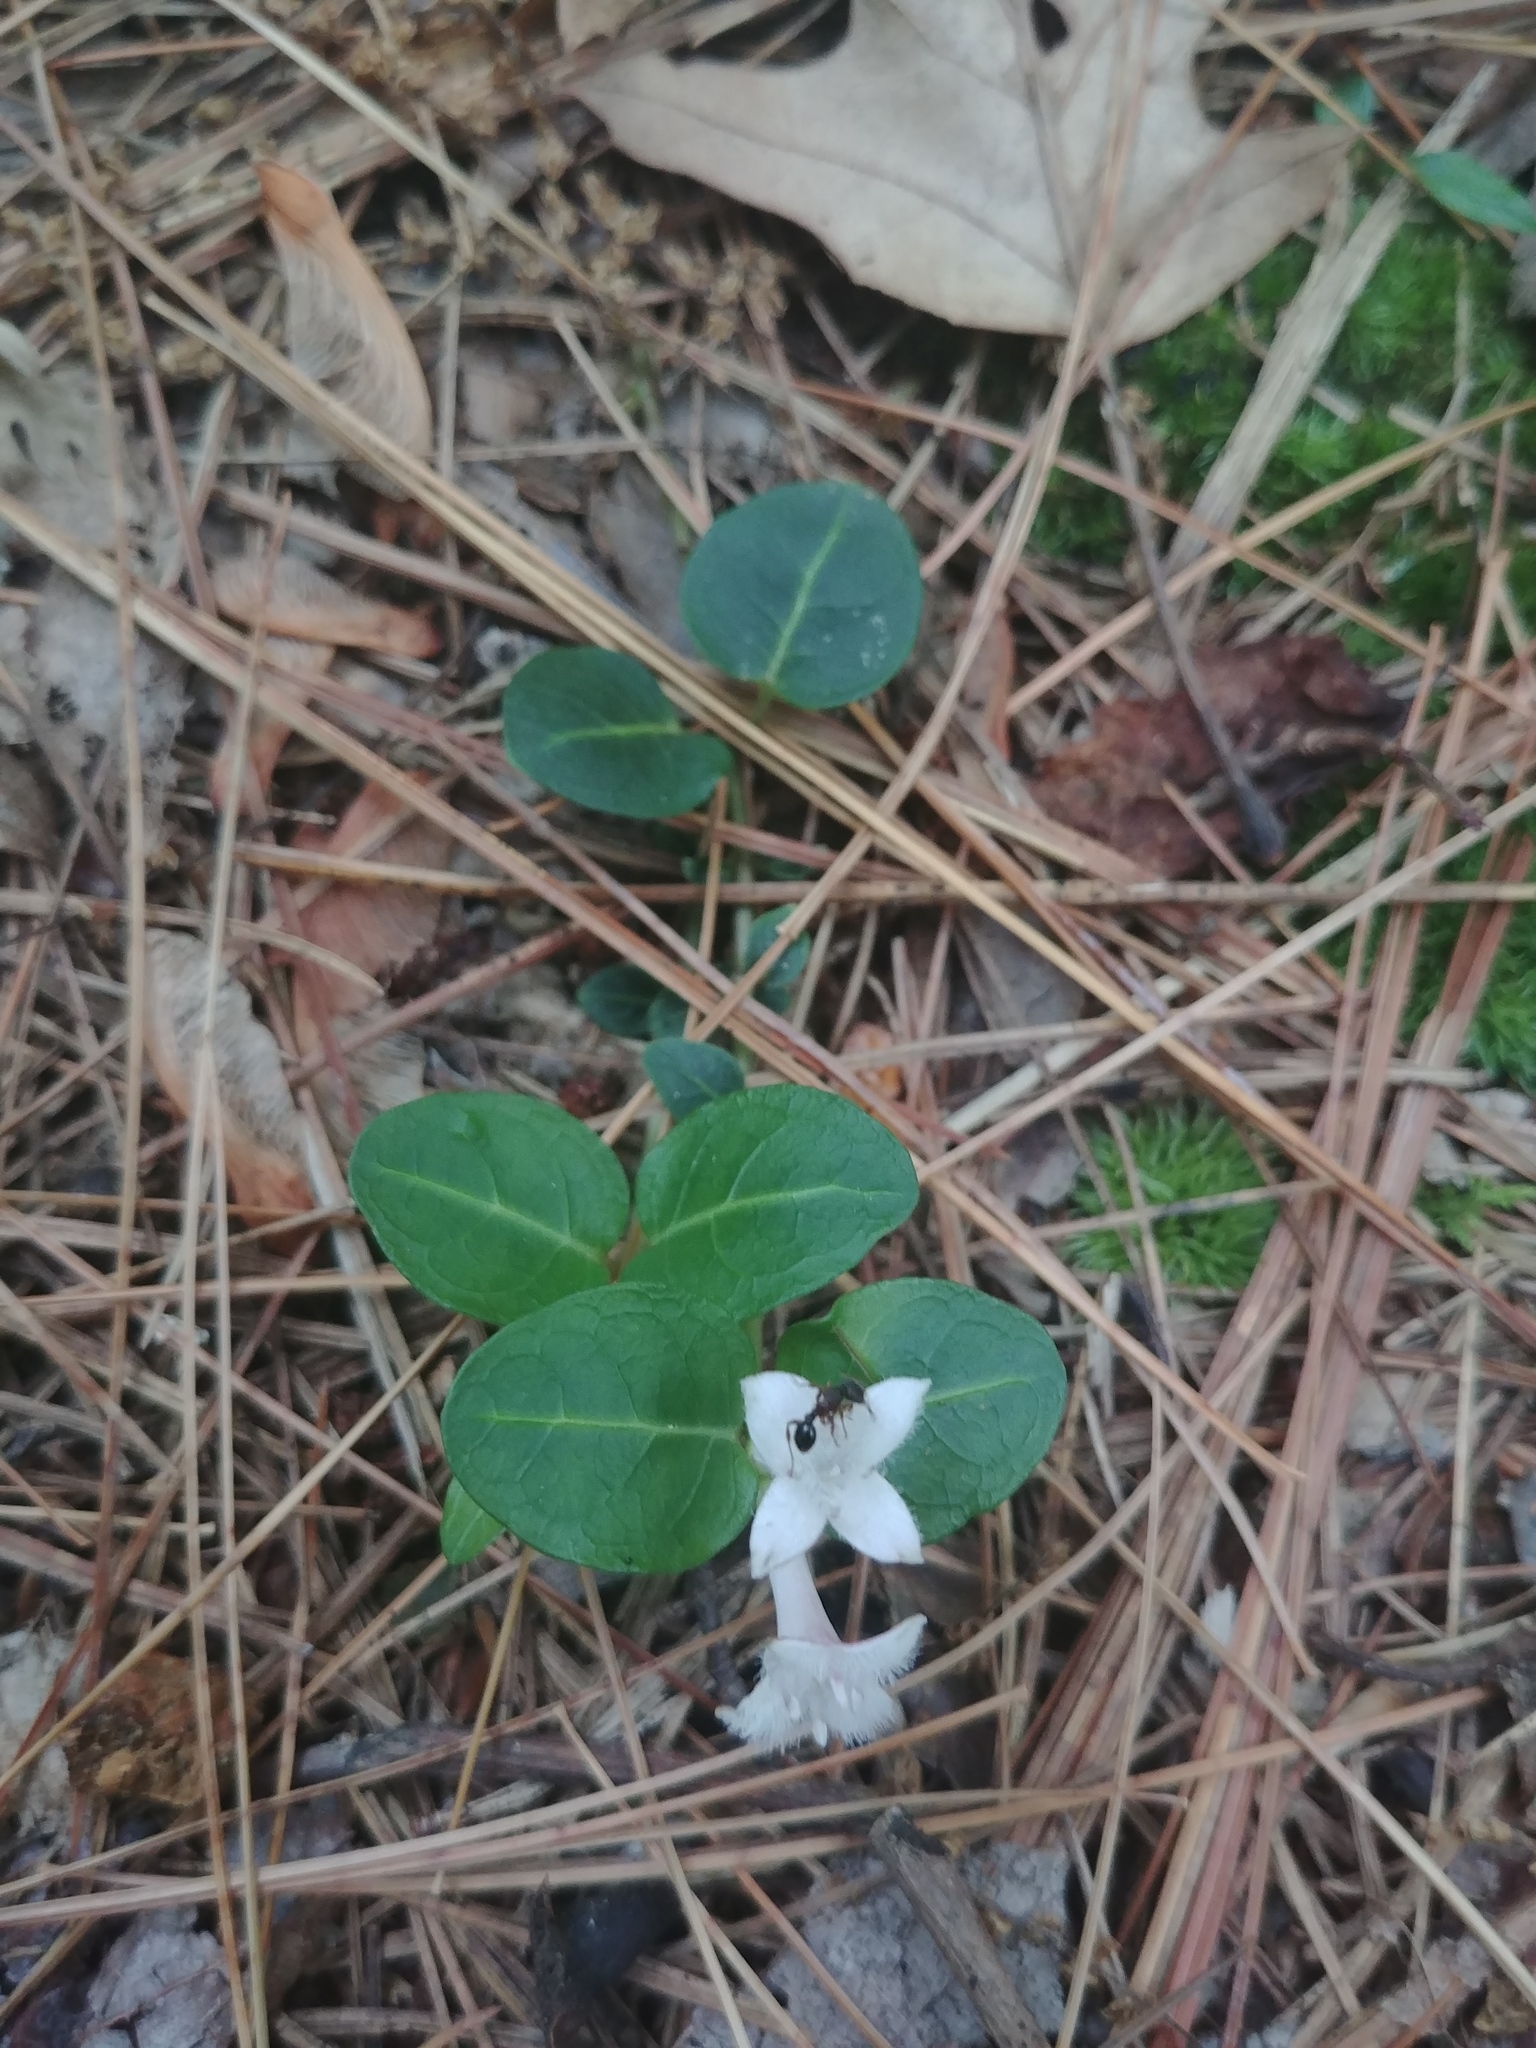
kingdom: Plantae
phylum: Tracheophyta
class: Magnoliopsida
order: Gentianales
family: Rubiaceae
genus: Mitchella
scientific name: Mitchella repens
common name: Partridge-berry
